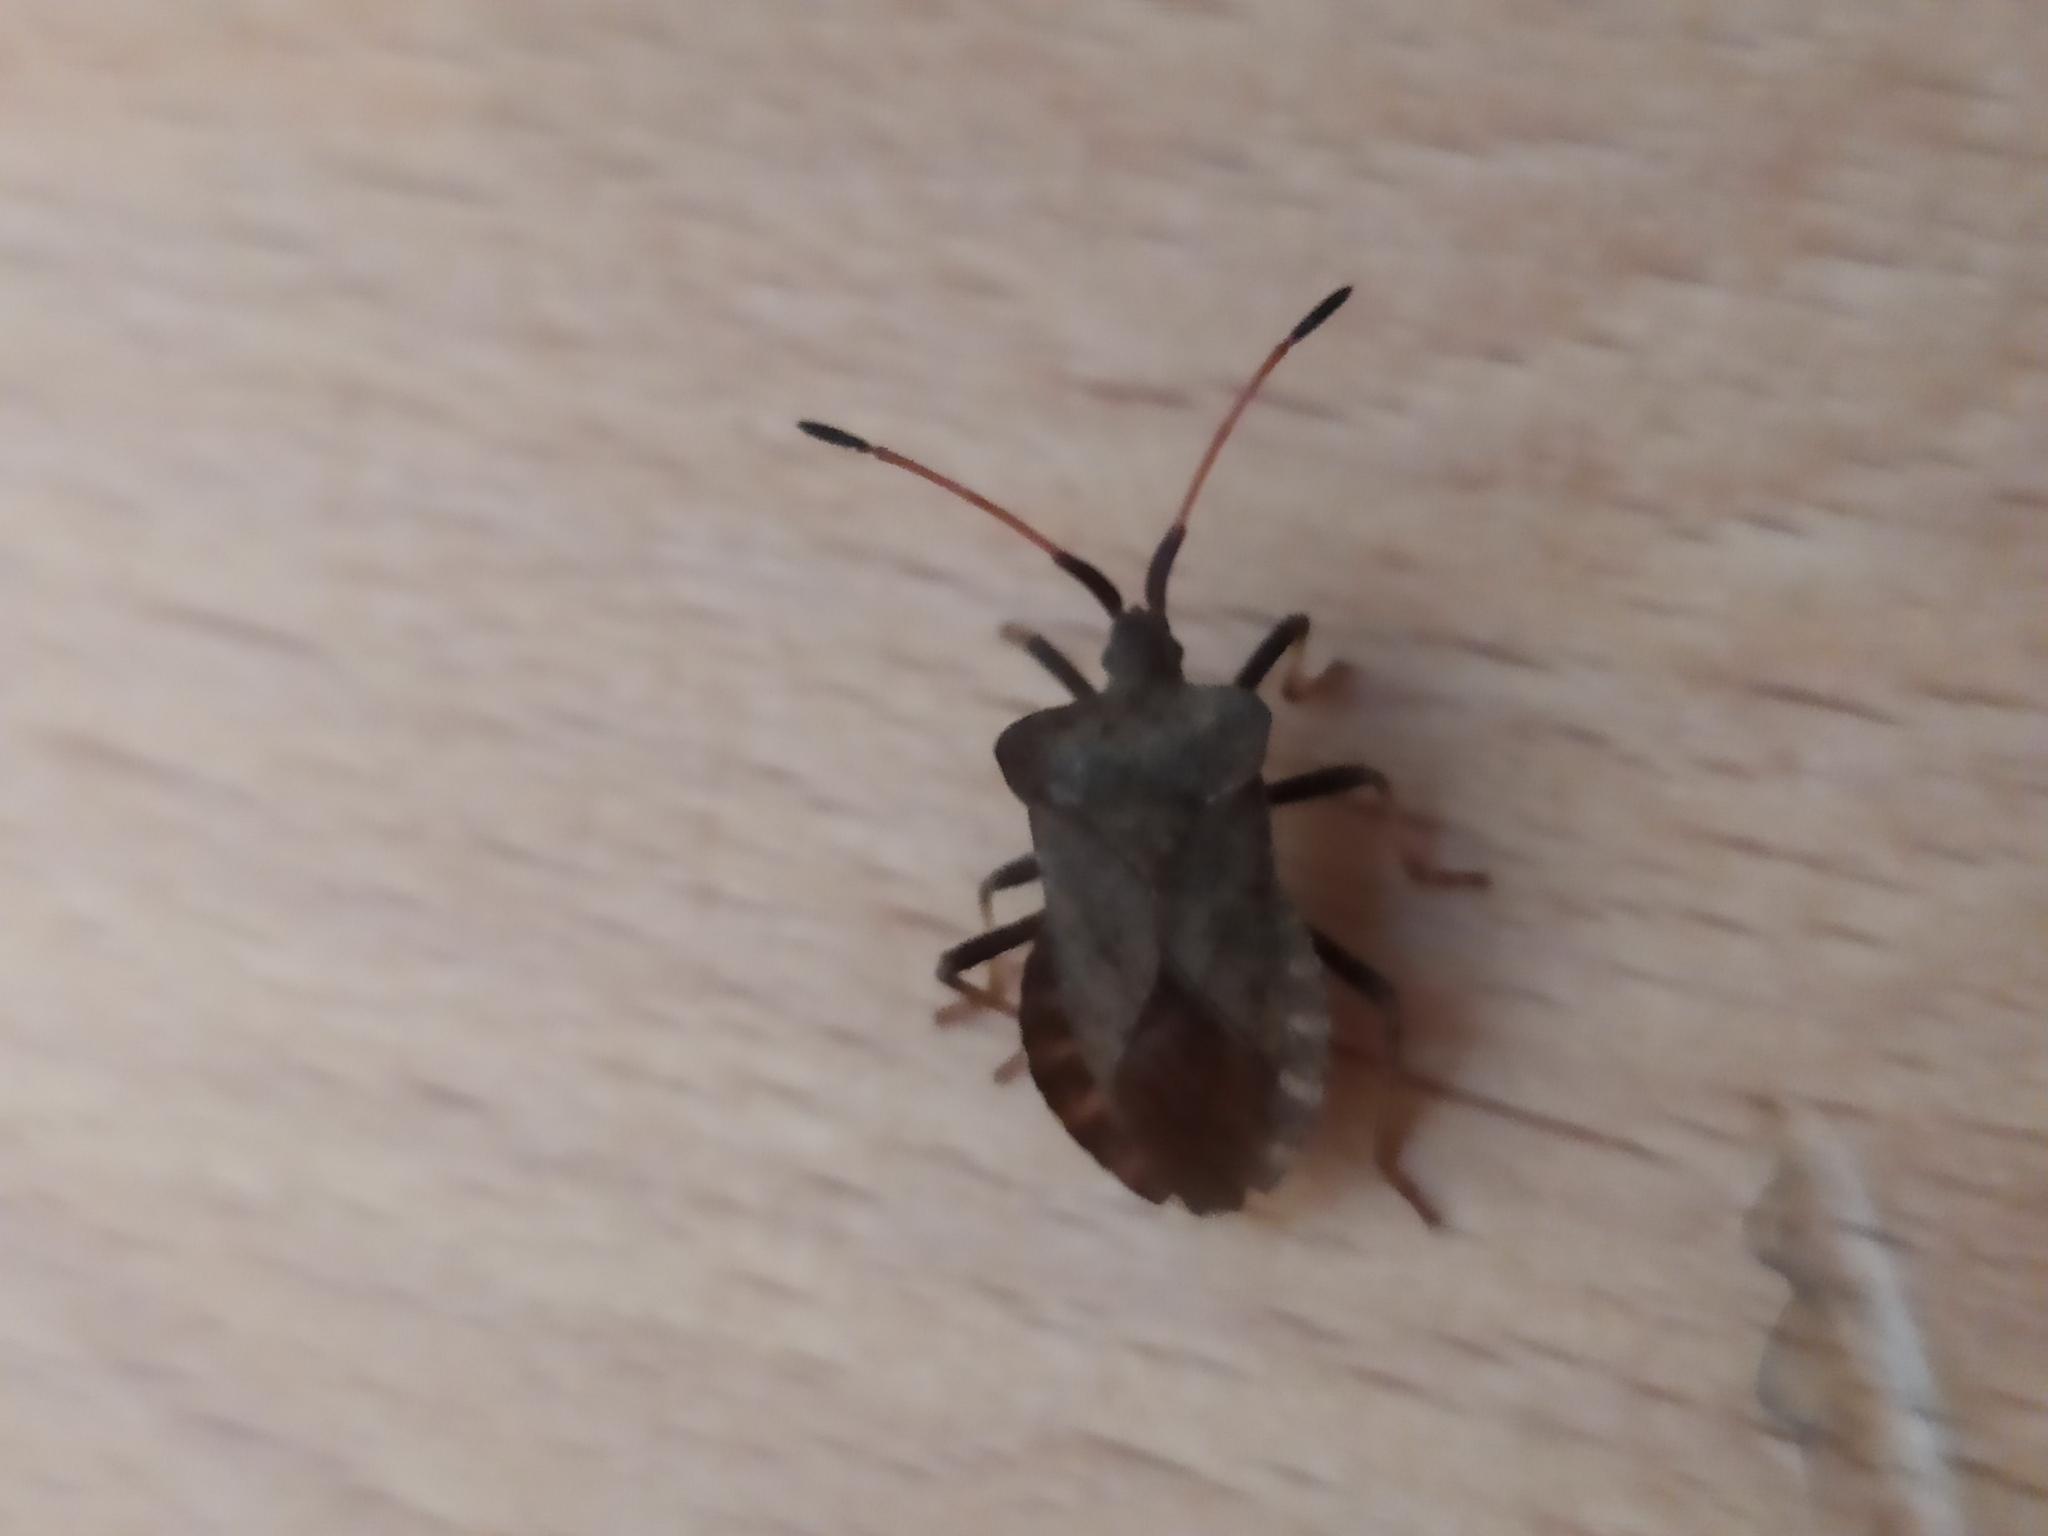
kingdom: Animalia
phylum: Arthropoda
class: Insecta
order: Hemiptera
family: Coreidae
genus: Coreus
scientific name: Coreus marginatus
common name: Dock bug
